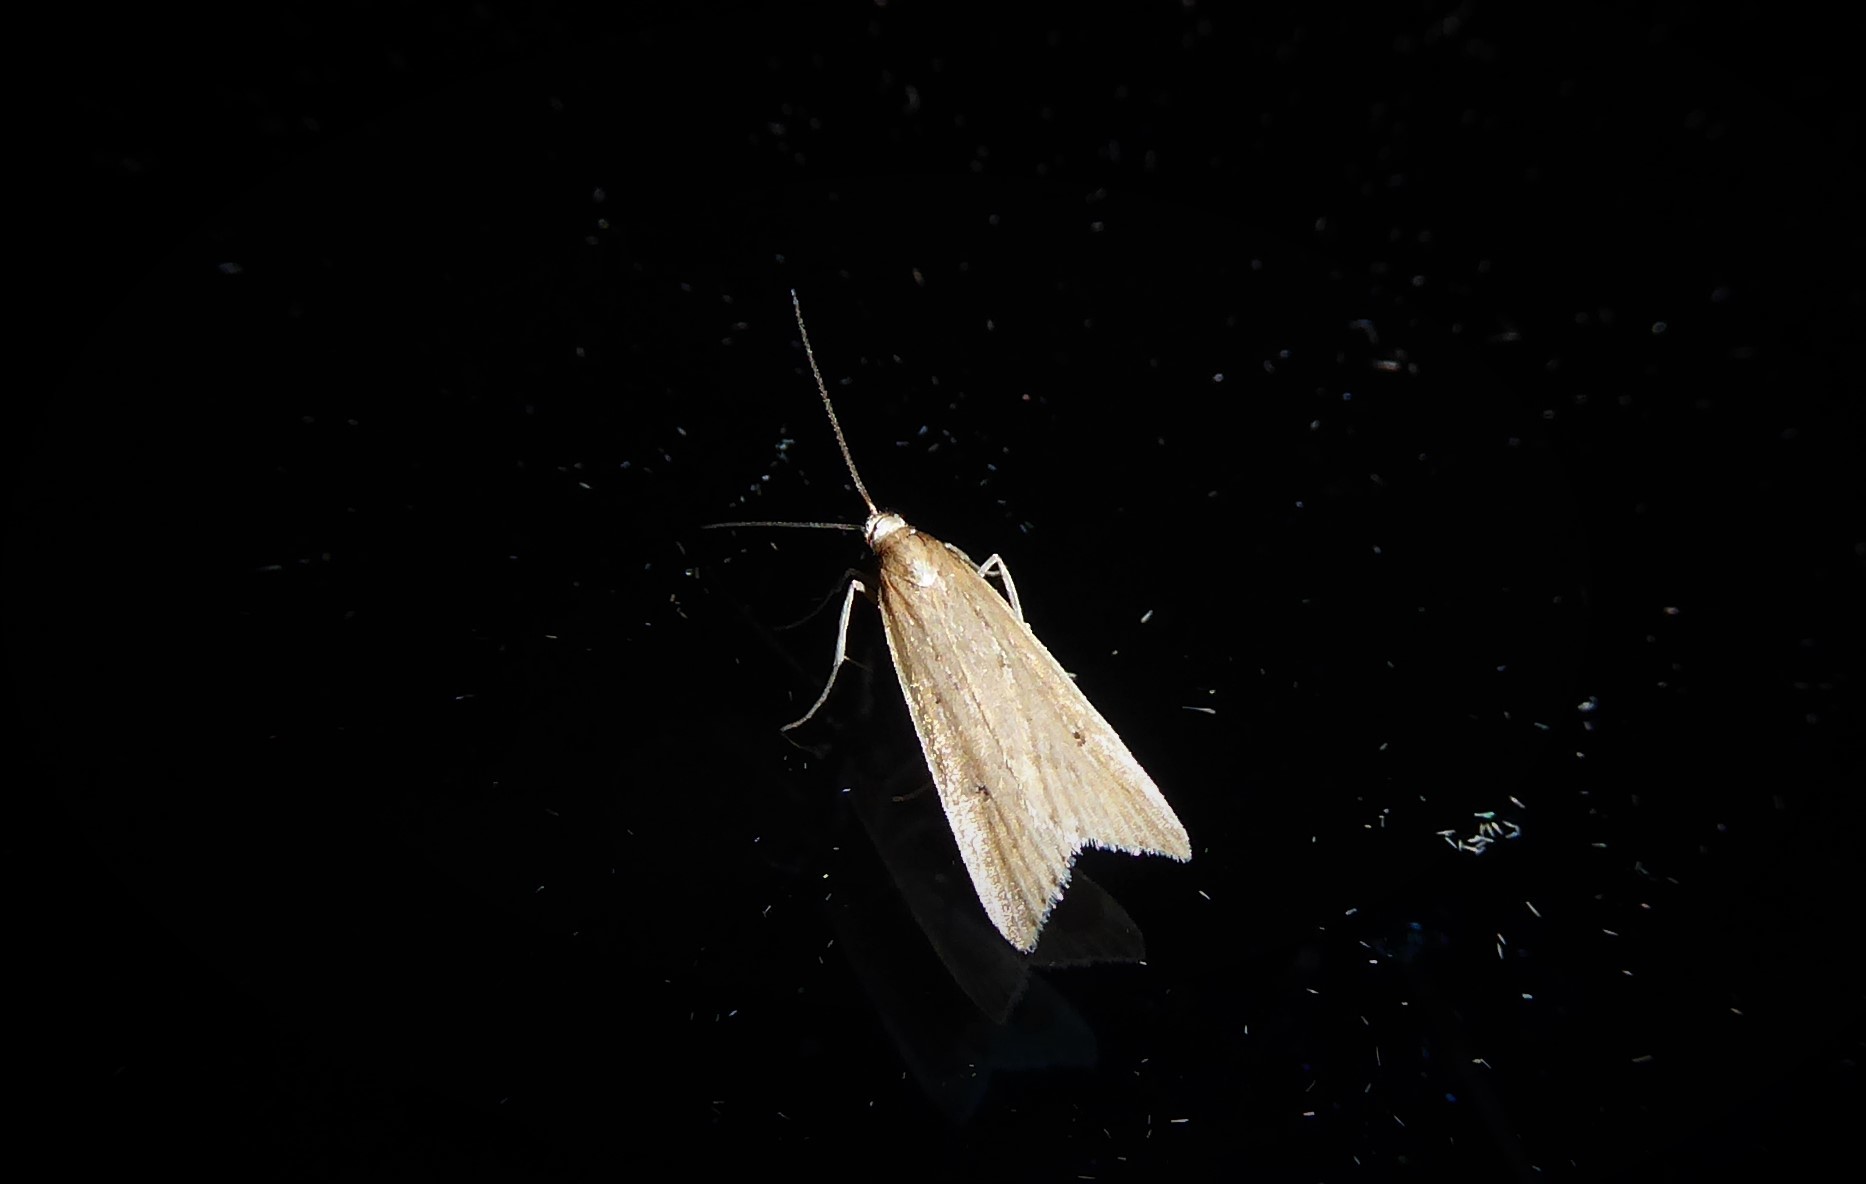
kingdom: Animalia
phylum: Arthropoda
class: Insecta
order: Lepidoptera
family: Crambidae
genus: Antiscopa
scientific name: Antiscopa elaphra
